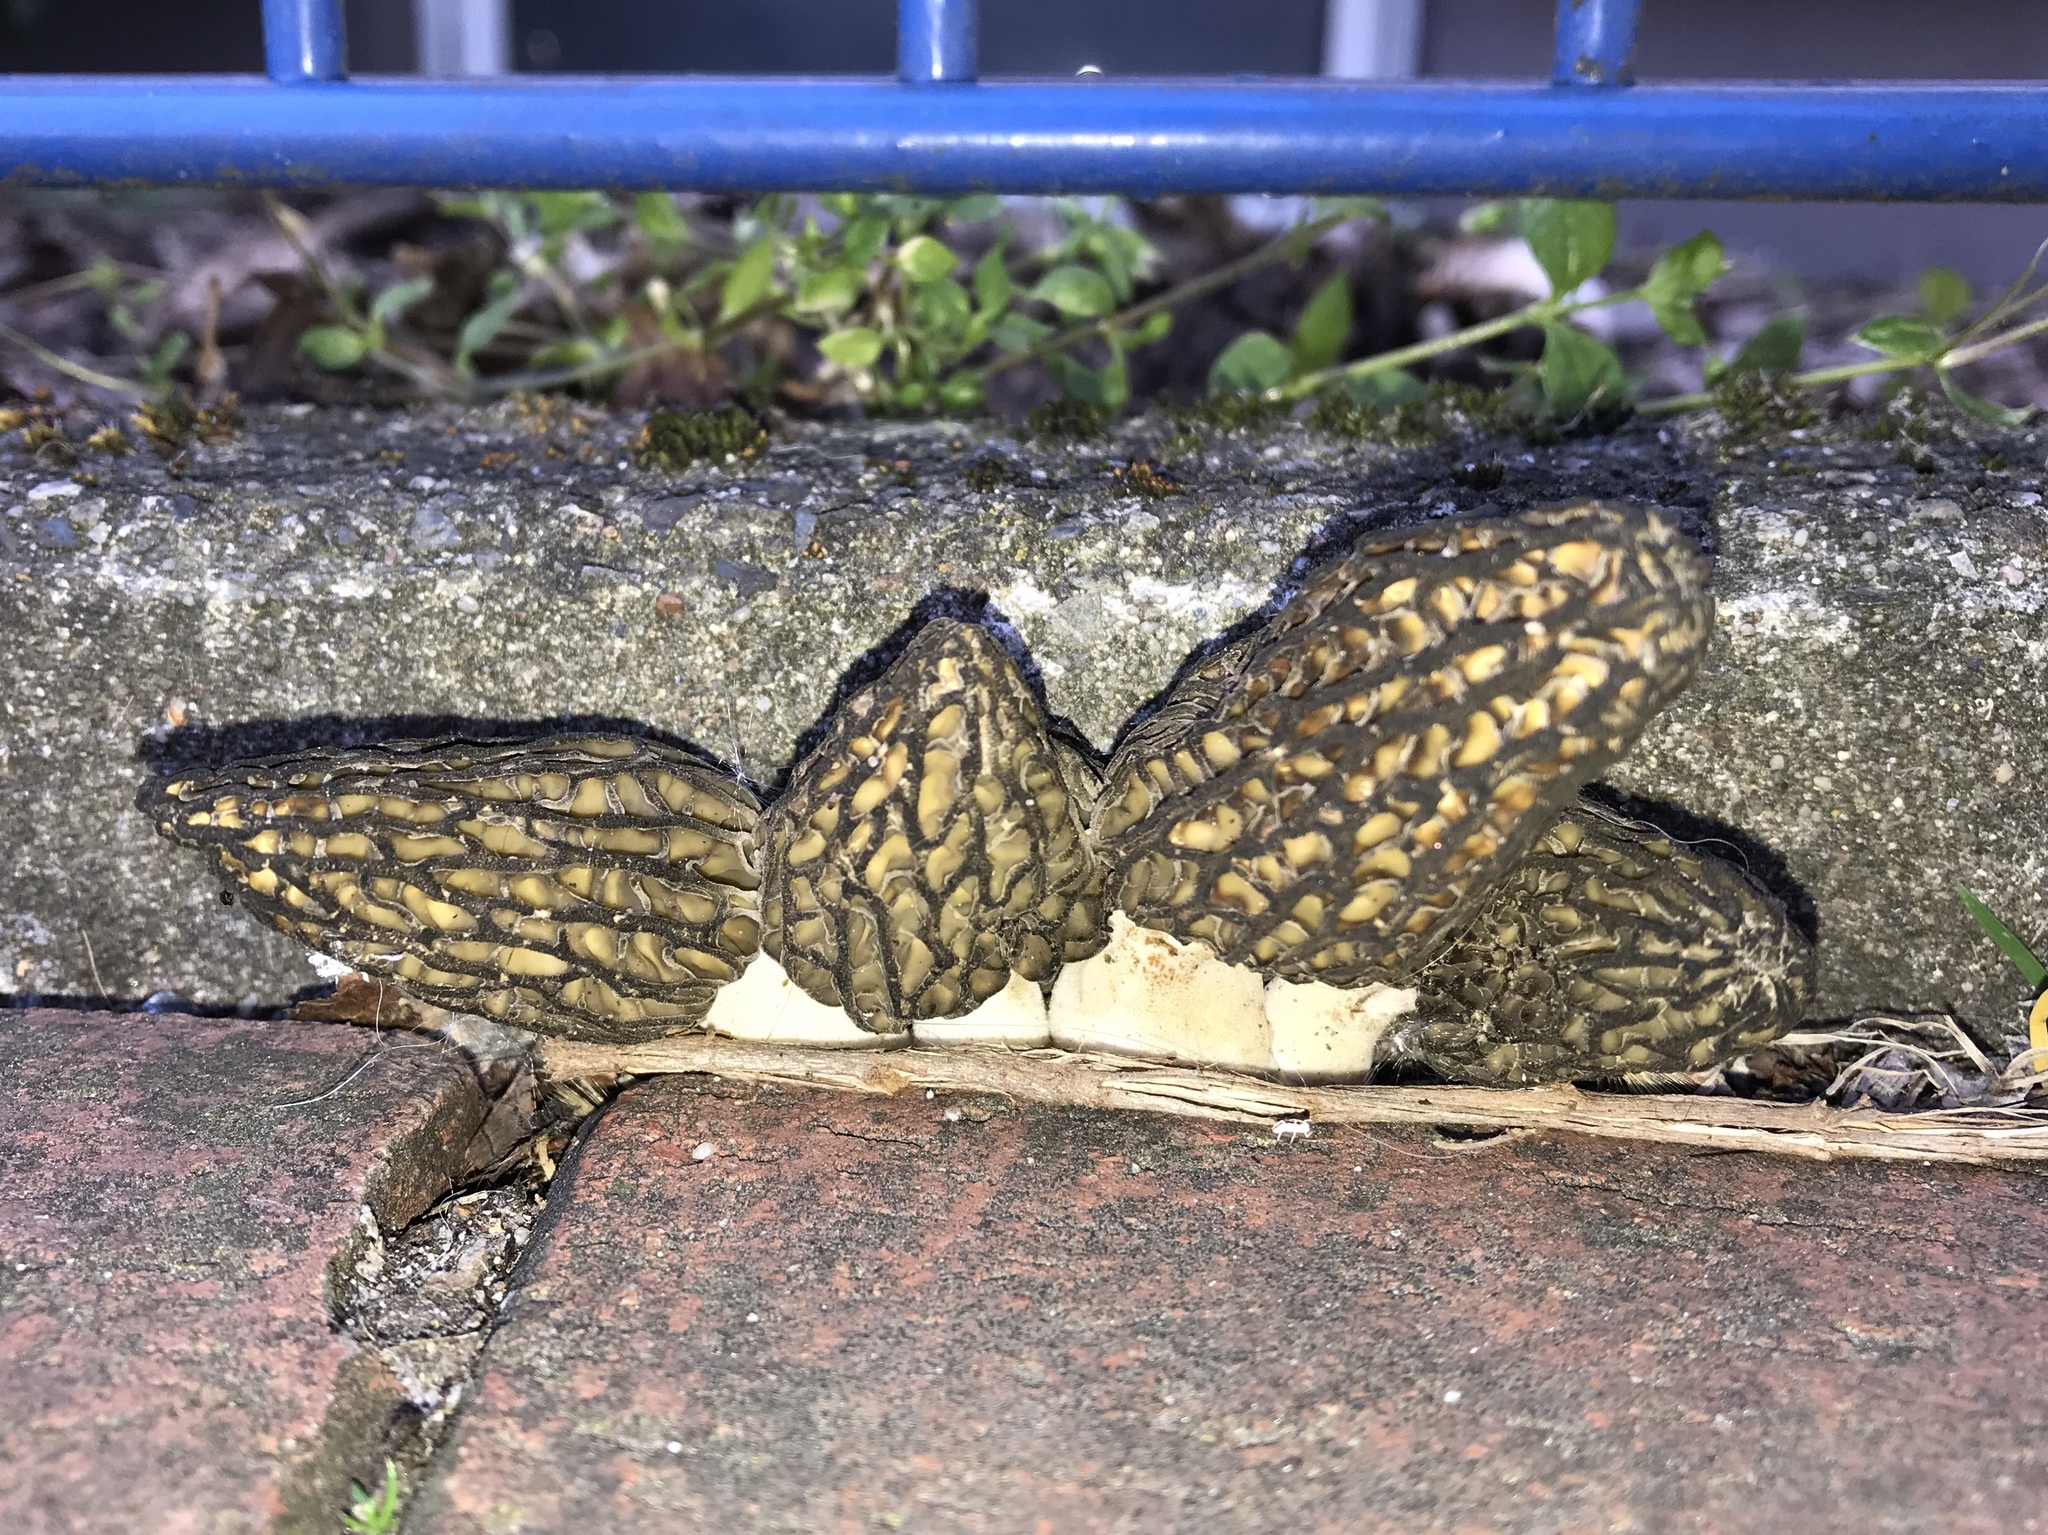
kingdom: Fungi
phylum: Ascomycota
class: Pezizomycetes
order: Pezizales
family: Morchellaceae
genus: Morchella
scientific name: Morchella
